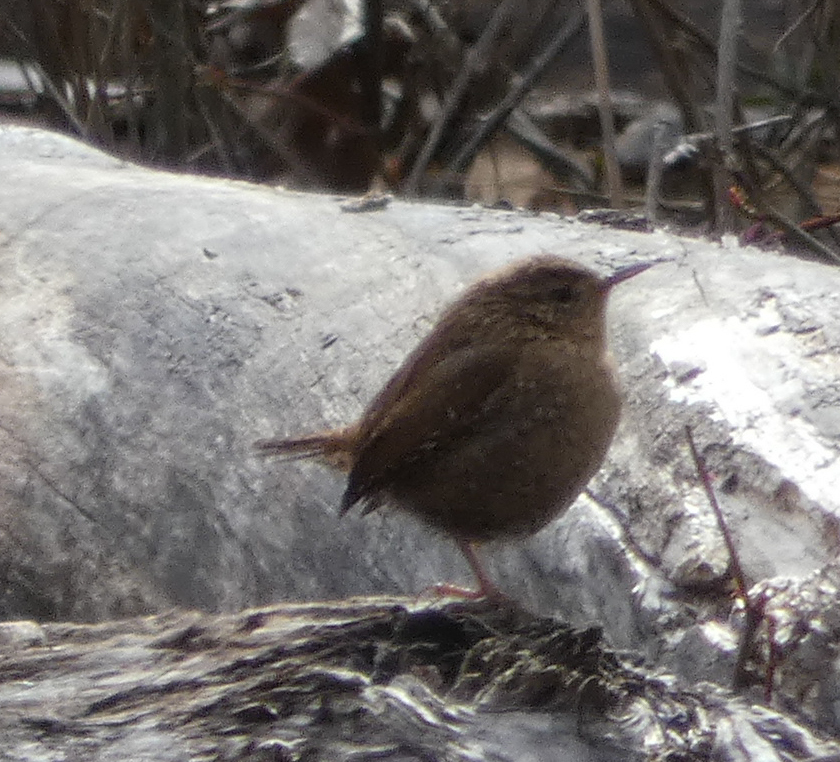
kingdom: Animalia
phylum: Chordata
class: Aves
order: Passeriformes
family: Troglodytidae
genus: Troglodytes
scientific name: Troglodytes hiemalis
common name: Winter wren
